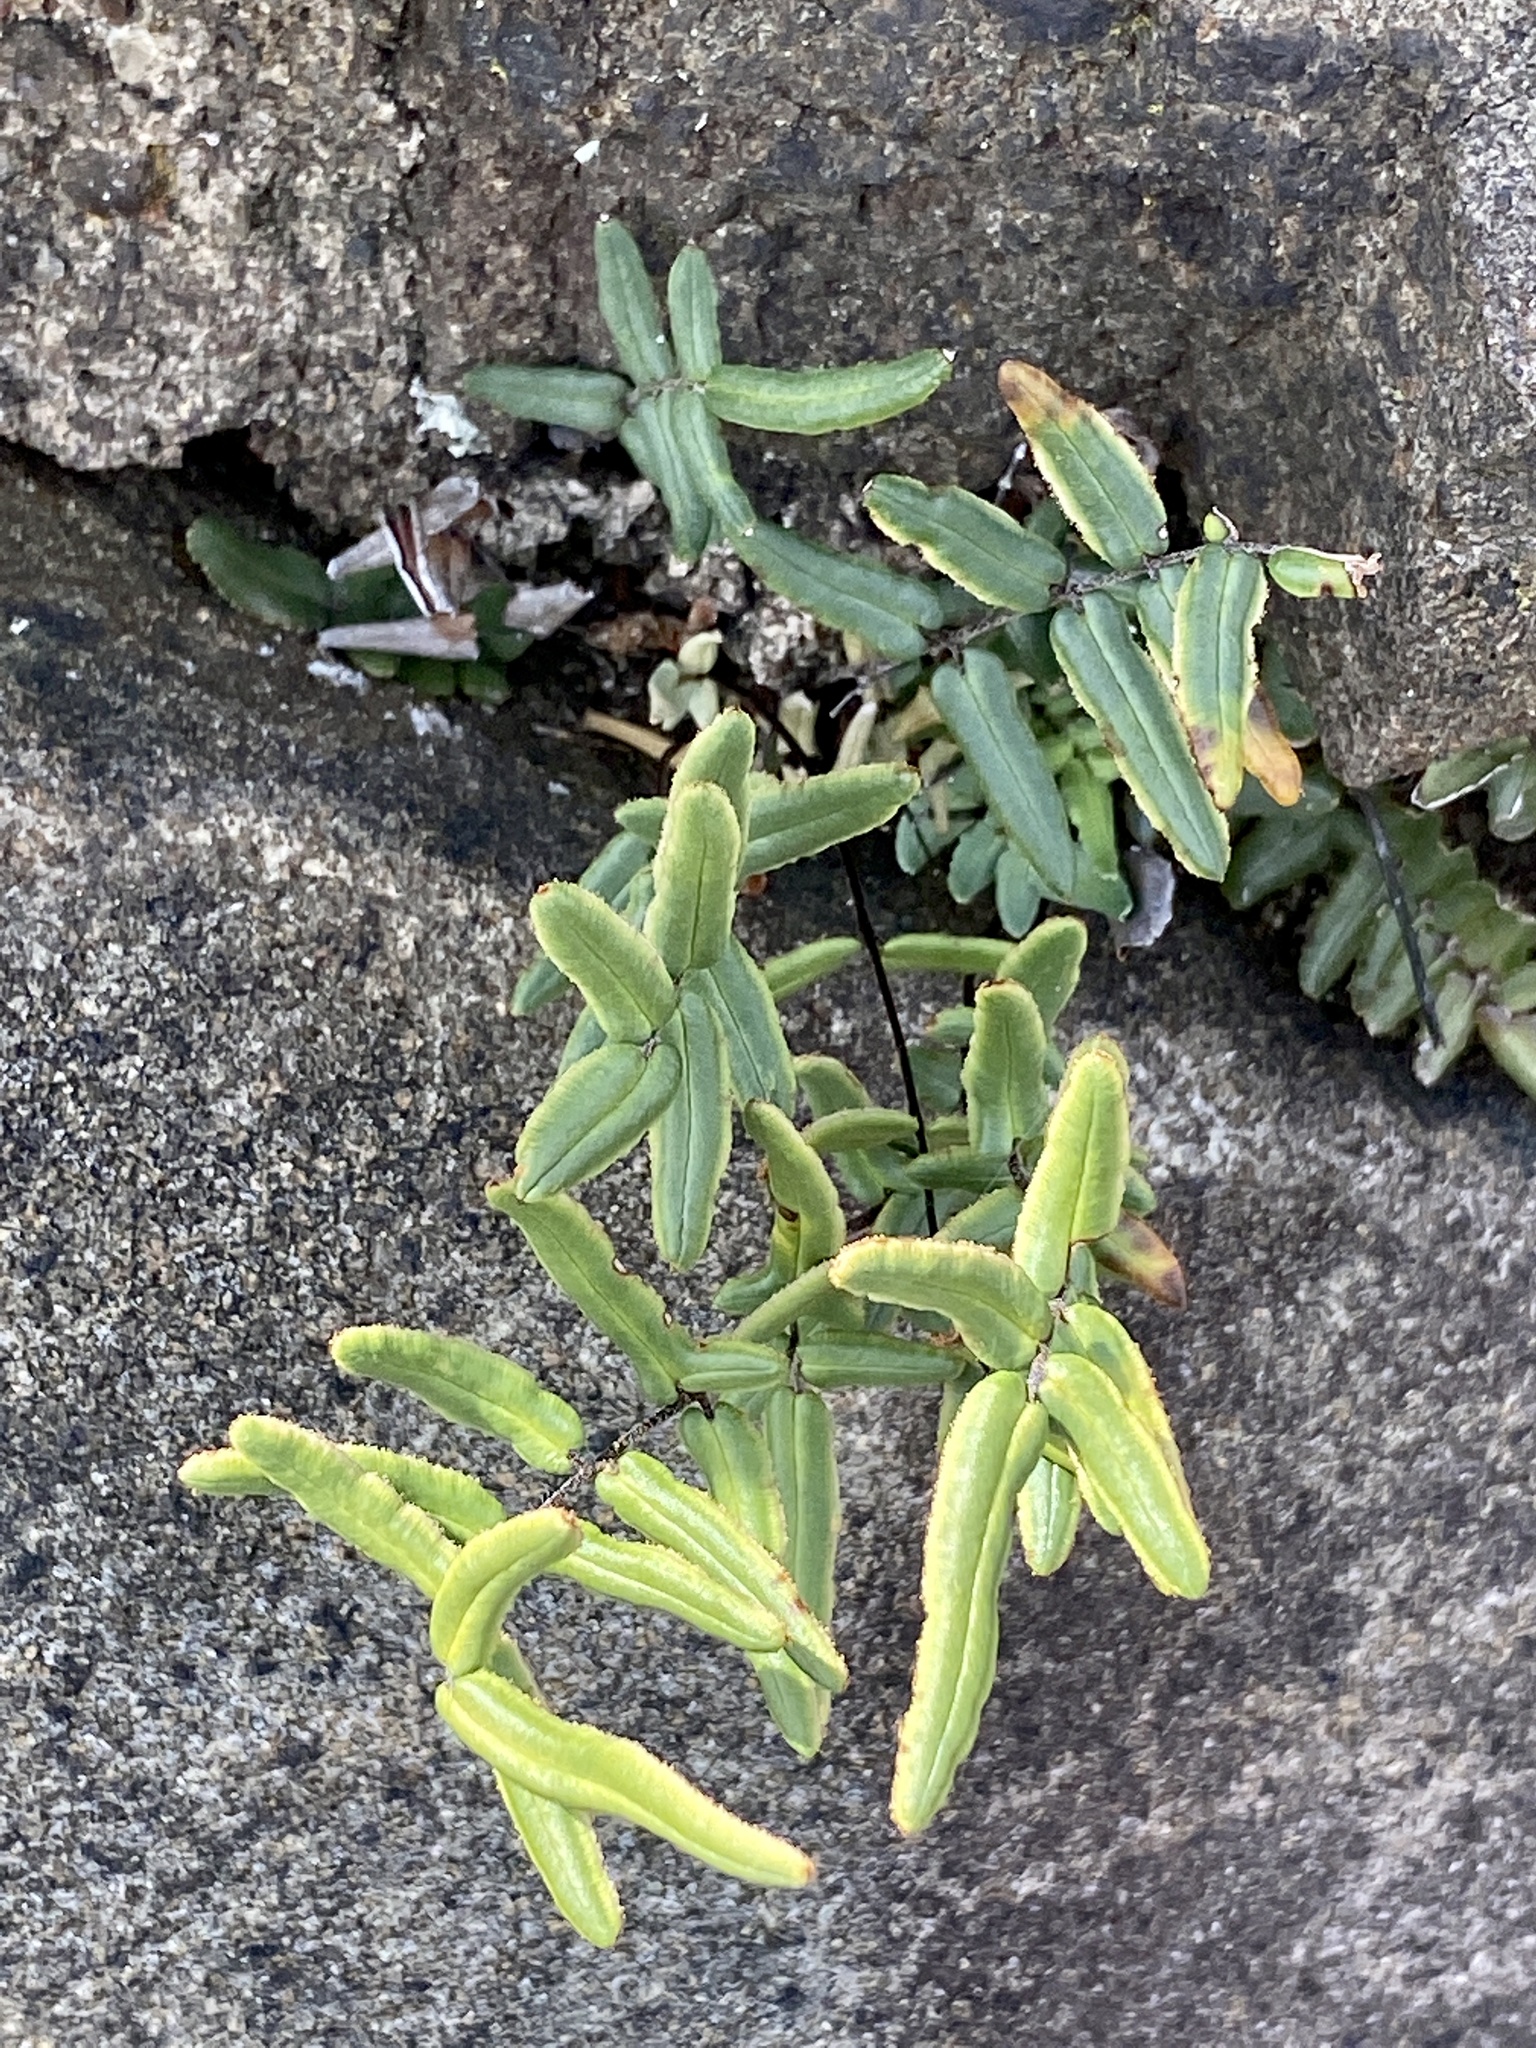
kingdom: Plantae
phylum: Tracheophyta
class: Polypodiopsida
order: Polypodiales
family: Pteridaceae
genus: Pellaea
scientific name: Pellaea atropurpurea
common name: Hairy cliffbrake
